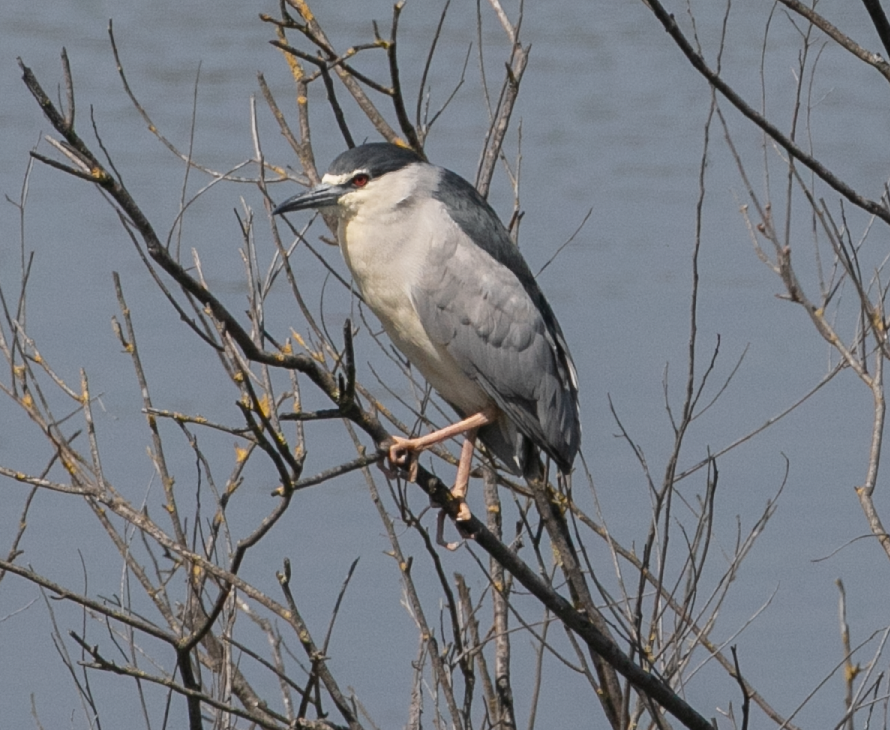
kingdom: Animalia
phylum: Chordata
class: Aves
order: Pelecaniformes
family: Ardeidae
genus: Nycticorax
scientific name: Nycticorax nycticorax
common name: Black-crowned night heron
